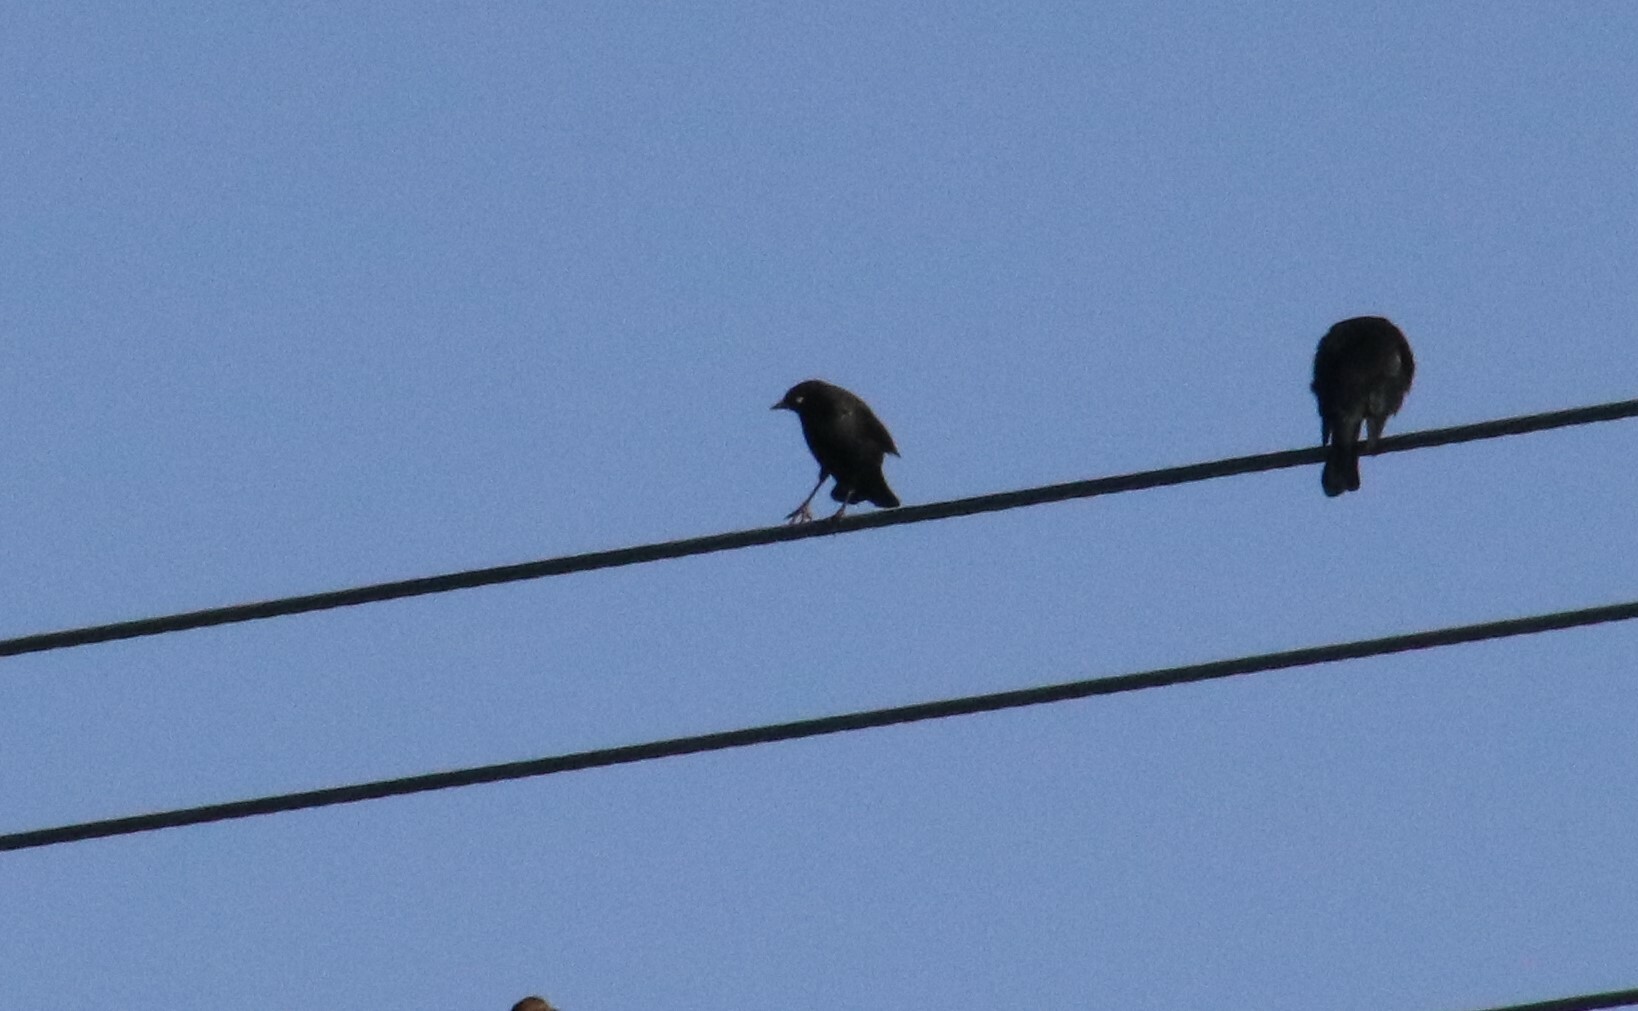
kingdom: Animalia
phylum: Chordata
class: Aves
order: Passeriformes
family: Icteridae
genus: Euphagus
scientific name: Euphagus cyanocephalus
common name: Brewer's blackbird
